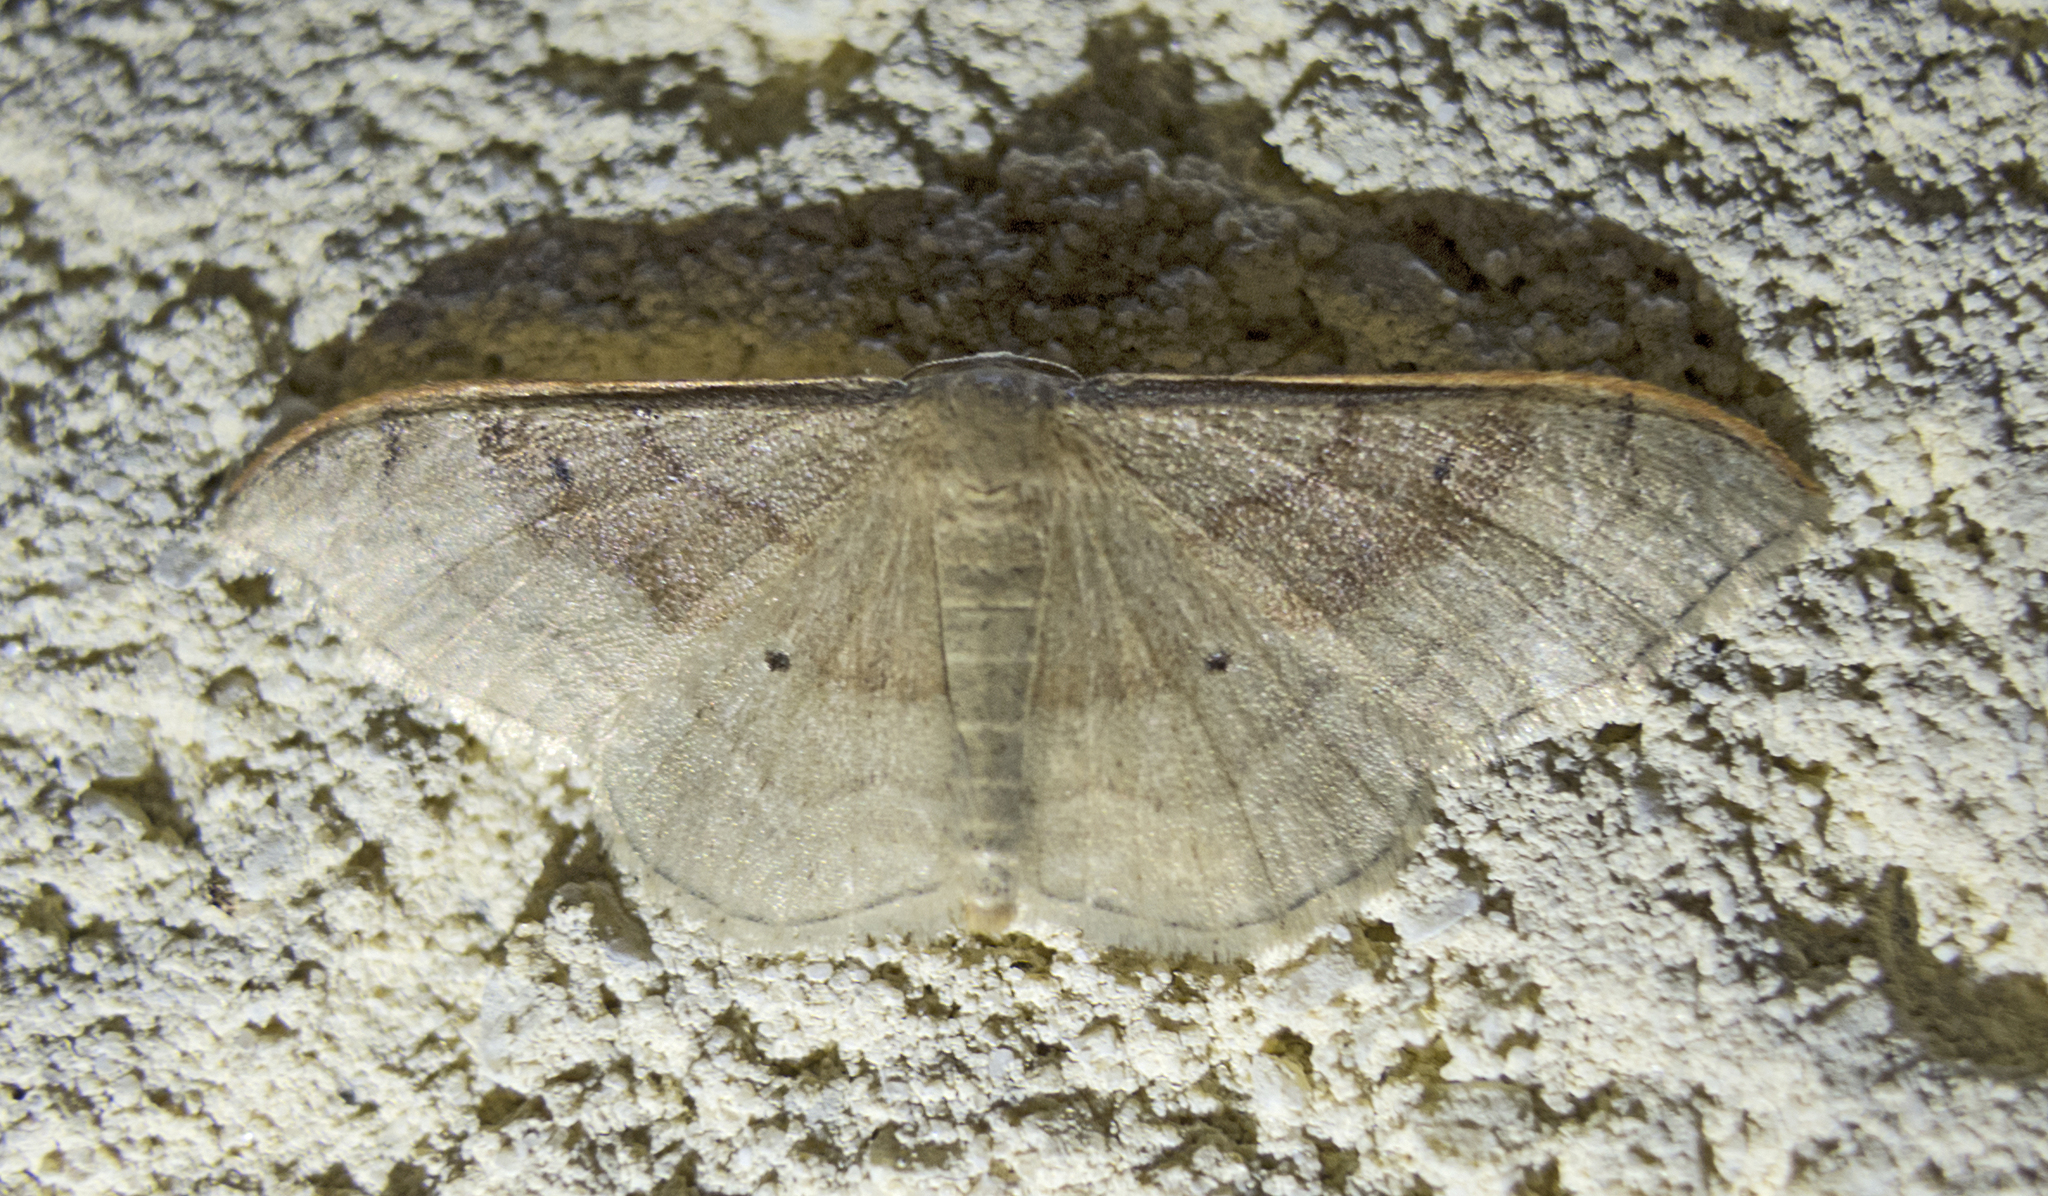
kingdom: Animalia
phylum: Arthropoda
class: Insecta
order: Lepidoptera
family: Geometridae
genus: Idaea
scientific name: Idaea degeneraria
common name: Portland ribbon wave
